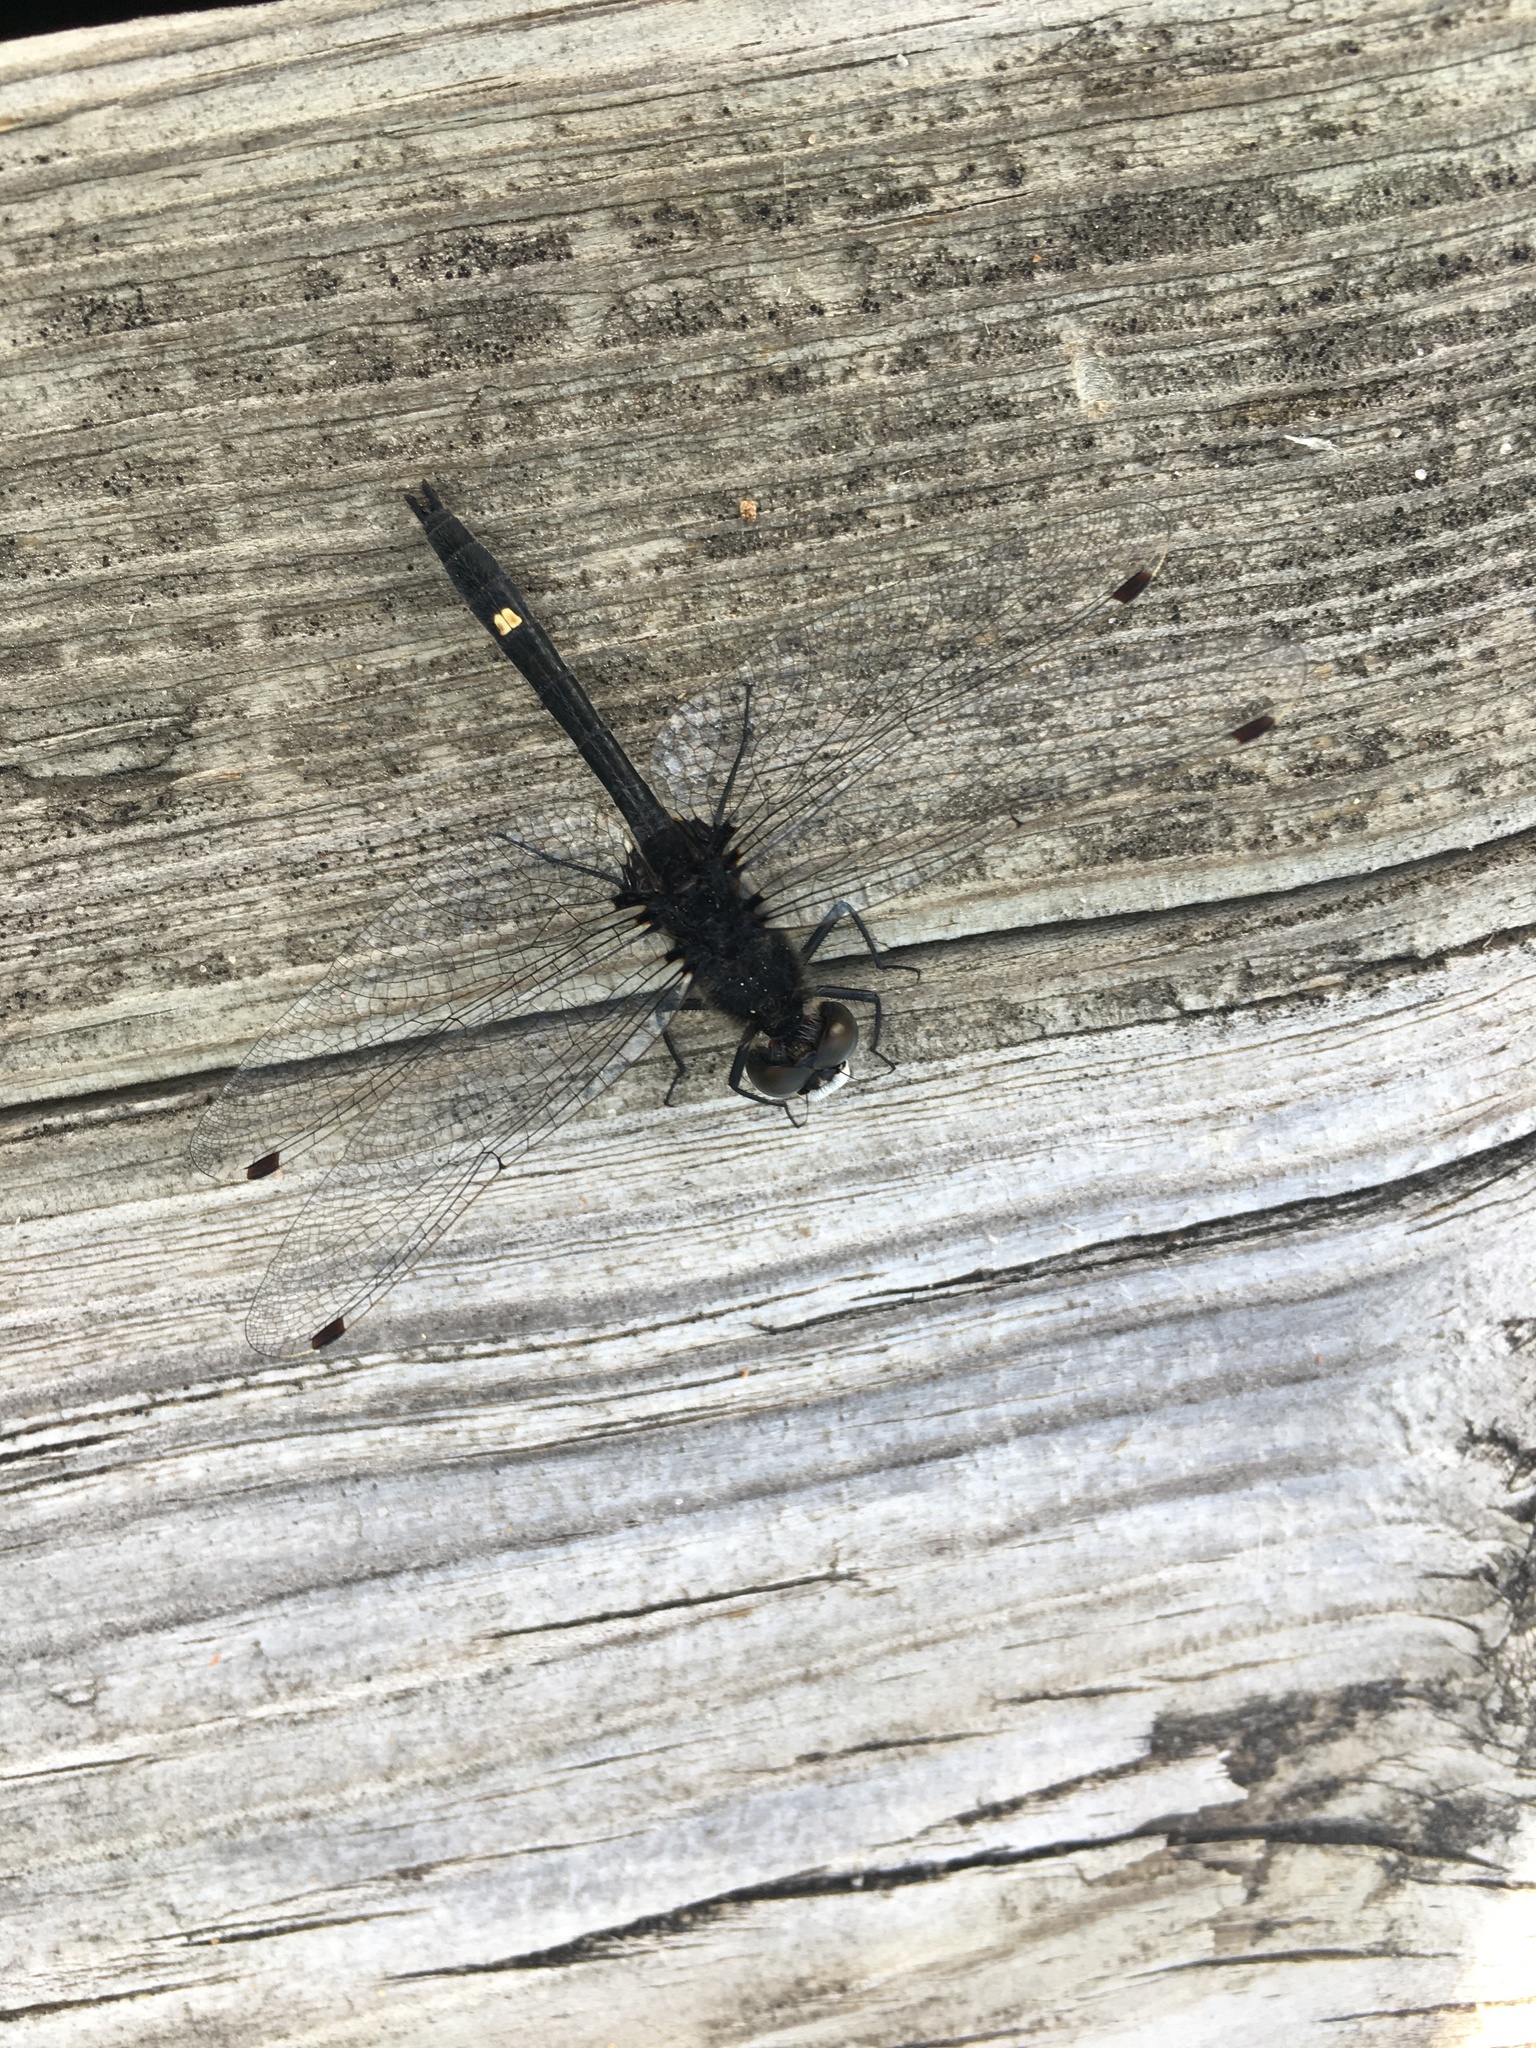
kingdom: Animalia
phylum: Arthropoda
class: Insecta
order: Odonata
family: Libellulidae
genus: Leucorrhinia
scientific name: Leucorrhinia intacta
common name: Dot-tailed whiteface
